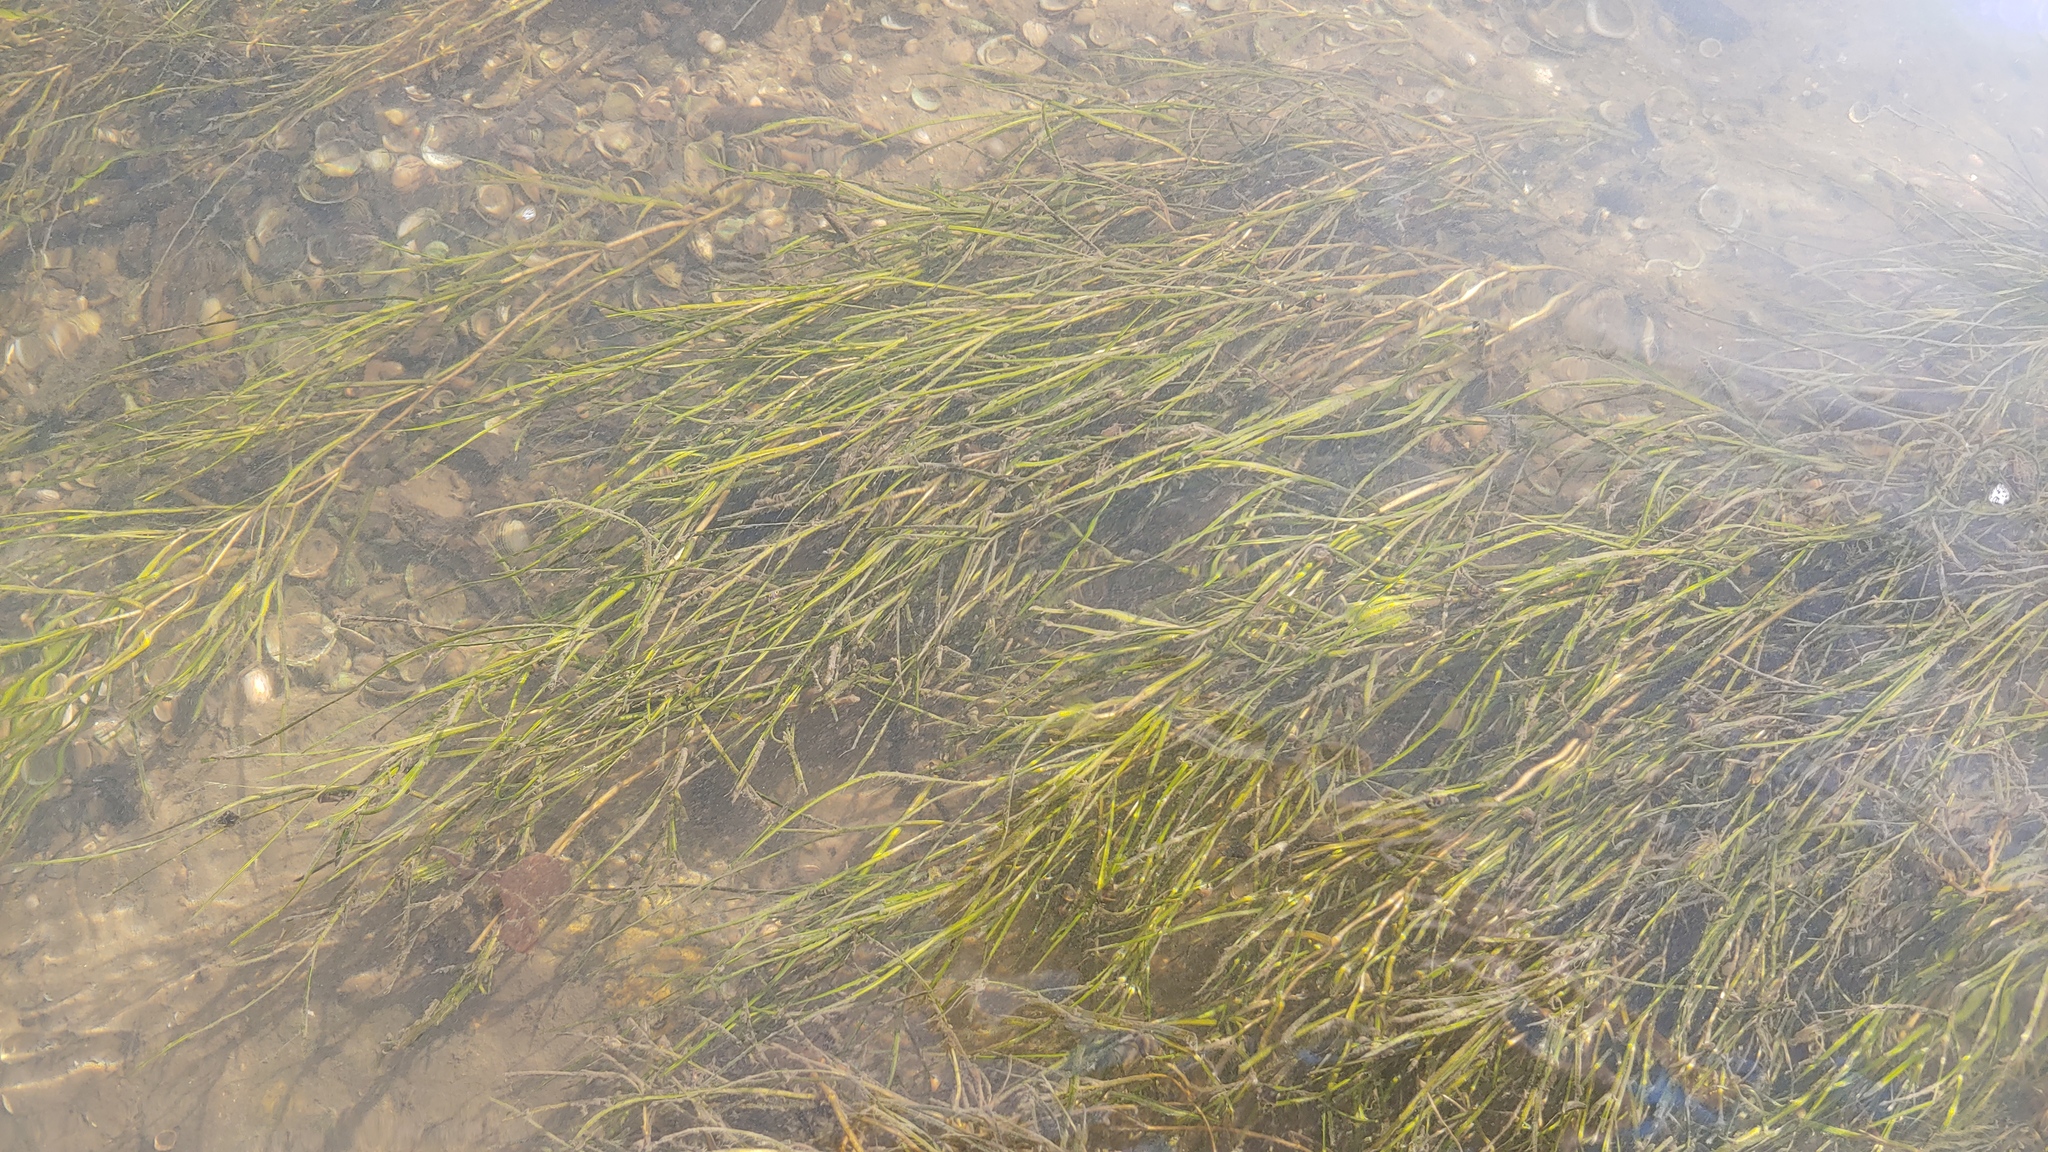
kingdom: Plantae
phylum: Tracheophyta
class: Liliopsida
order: Alismatales
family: Potamogetonaceae
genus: Stuckenia
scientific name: Stuckenia pectinata
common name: Sago pondweed
